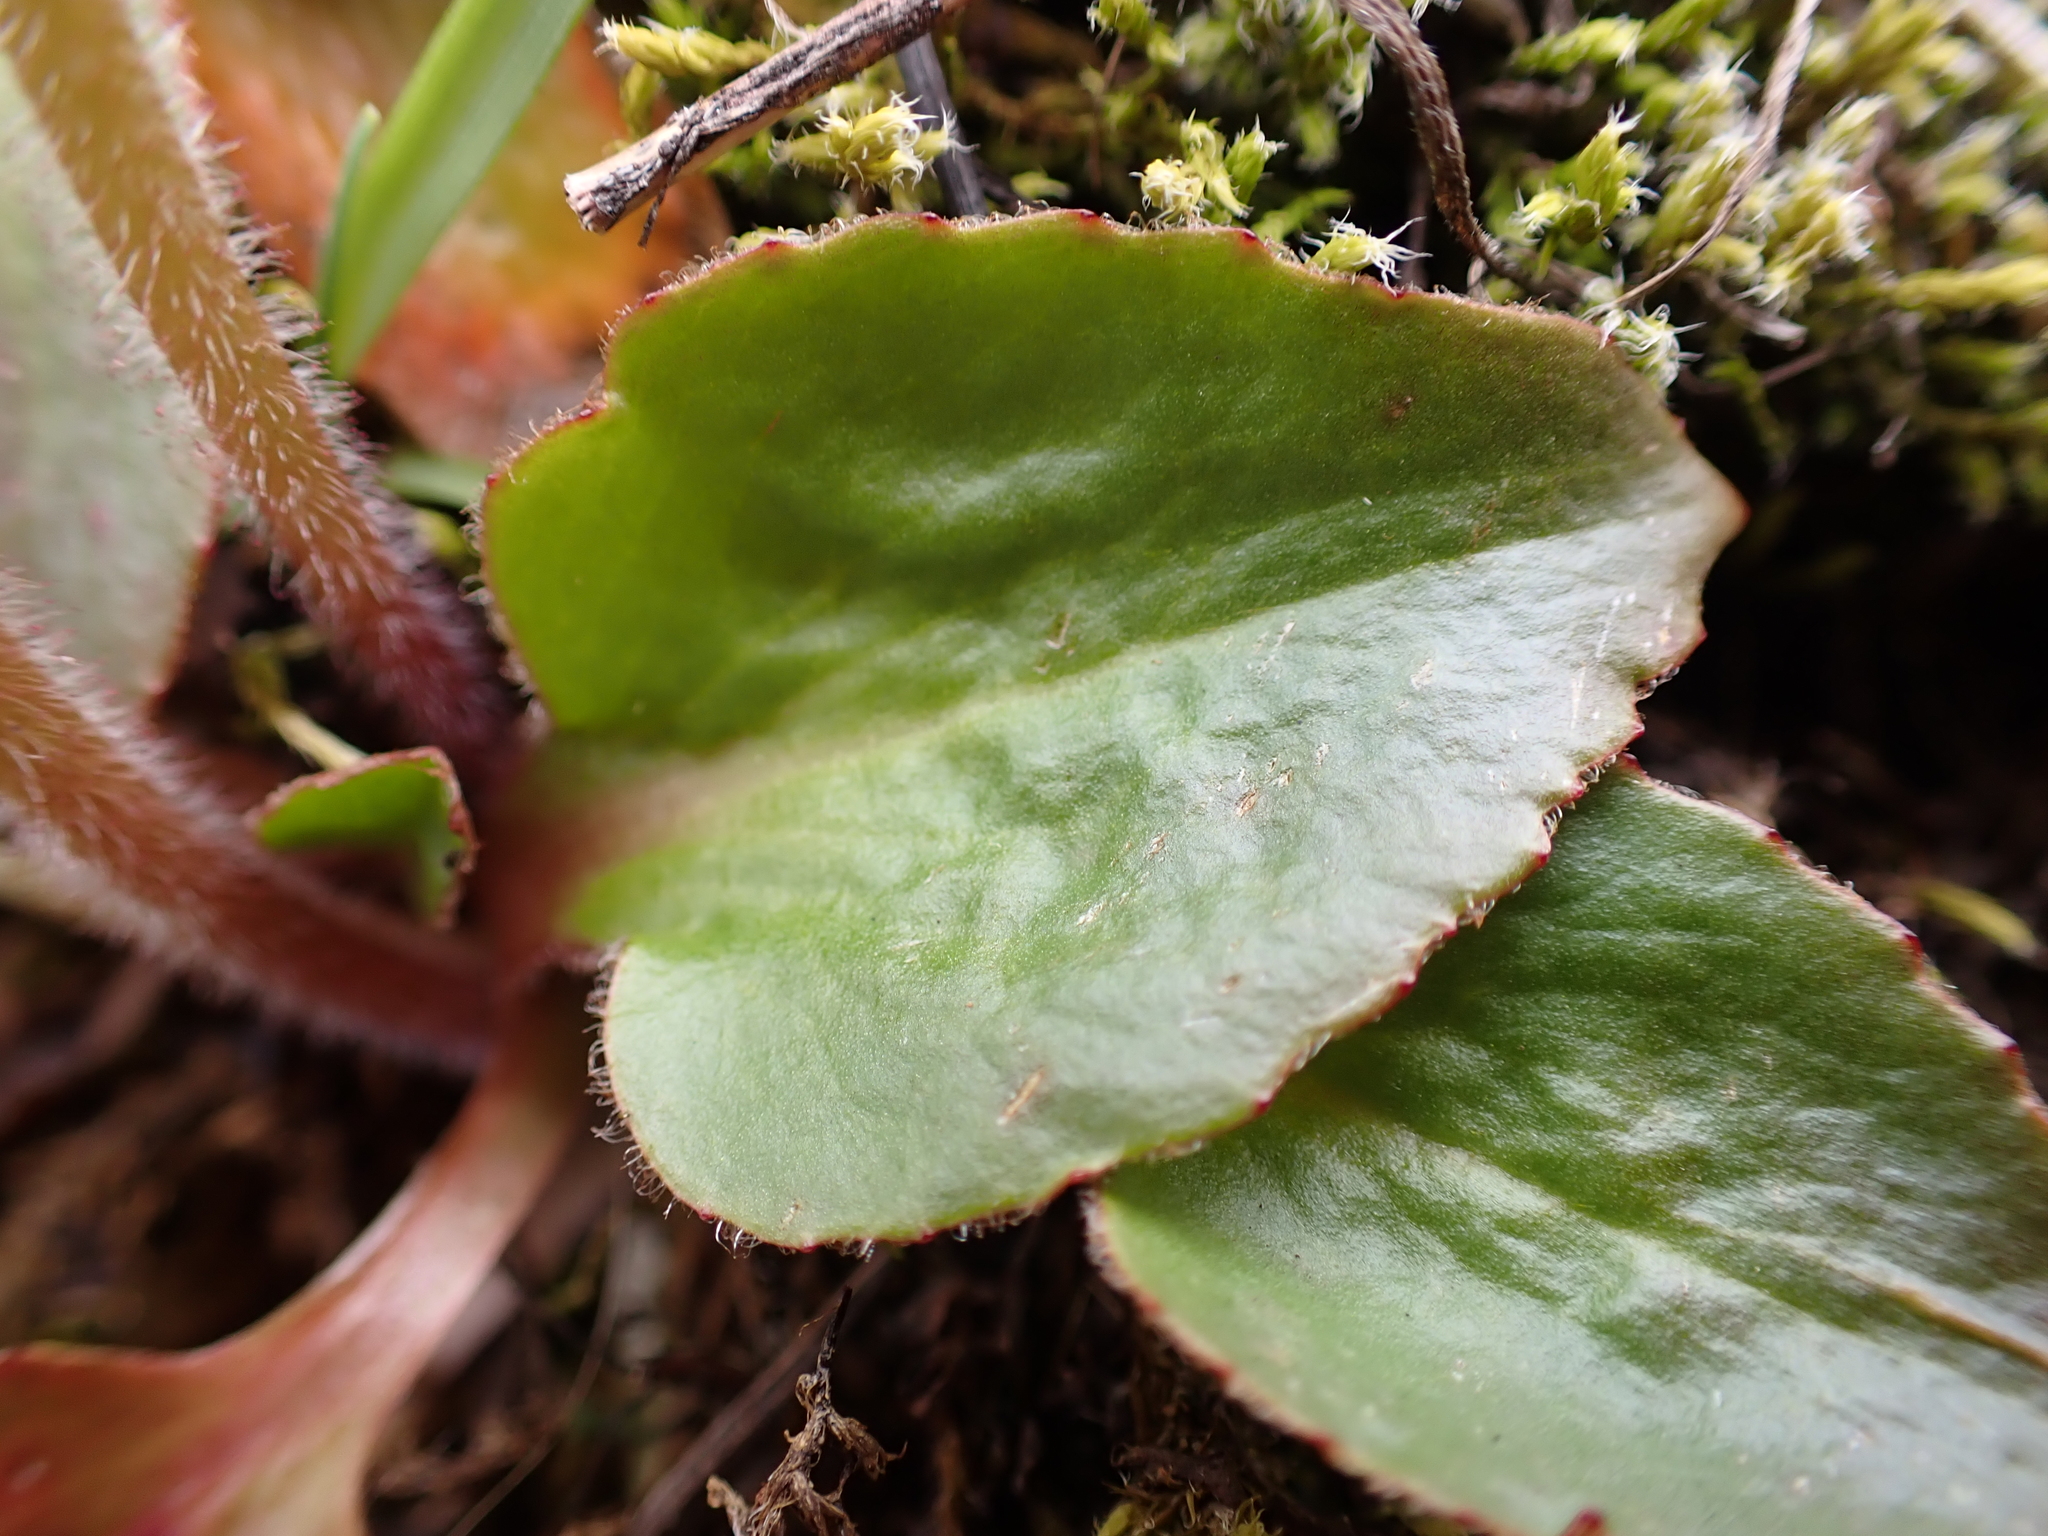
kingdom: Plantae
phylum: Tracheophyta
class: Magnoliopsida
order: Saxifragales
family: Saxifragaceae
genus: Micranthes
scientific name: Micranthes integrifolia
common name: Wholeleaf saxifrage
